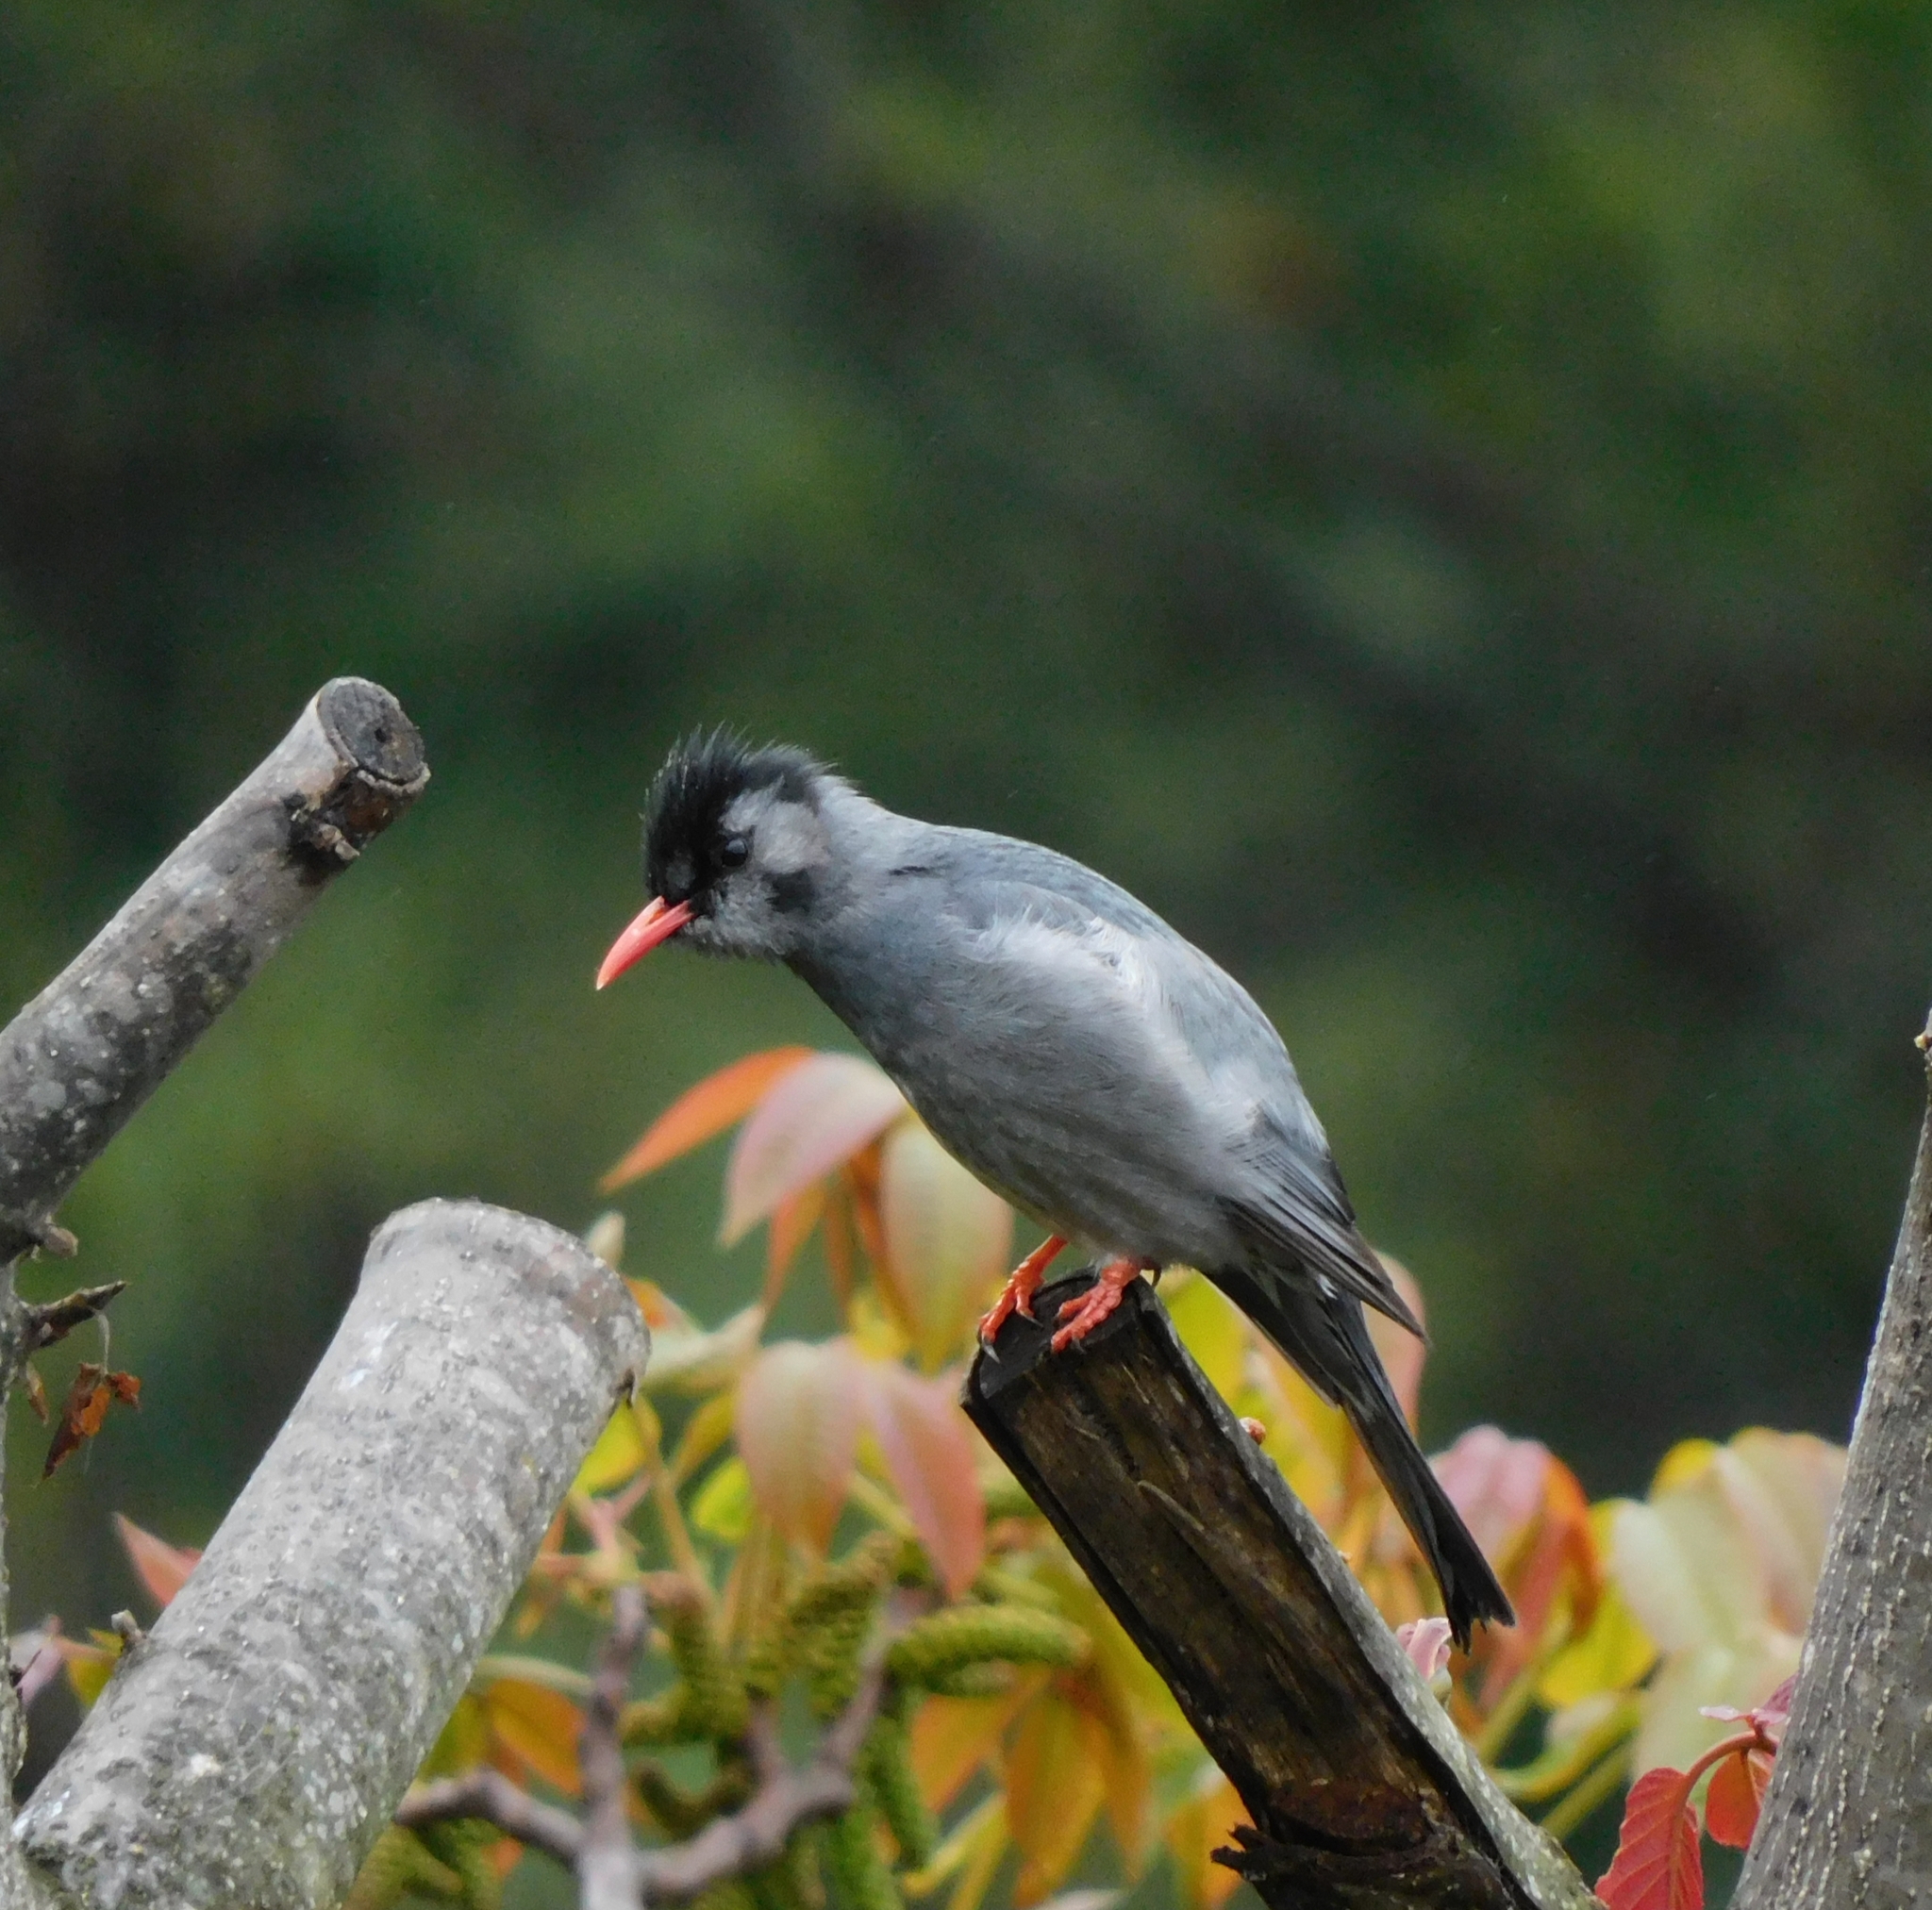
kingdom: Animalia
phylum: Chordata
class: Aves
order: Passeriformes
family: Pycnonotidae
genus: Hypsipetes
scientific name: Hypsipetes leucocephalus
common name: Black bulbul
